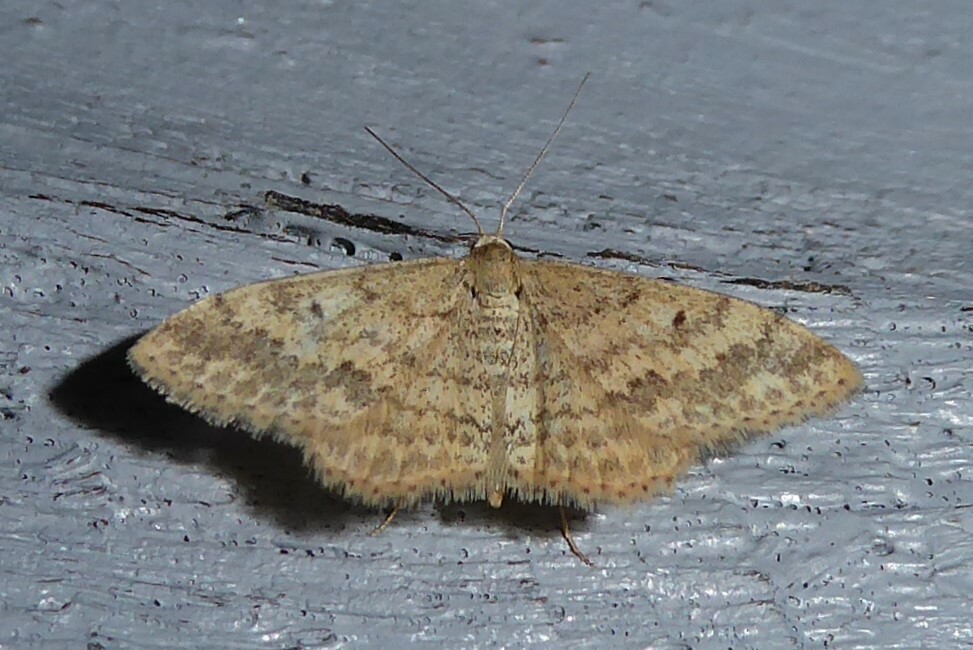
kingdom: Animalia
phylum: Arthropoda
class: Insecta
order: Lepidoptera
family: Geometridae
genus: Scopula
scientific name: Scopula rubraria
